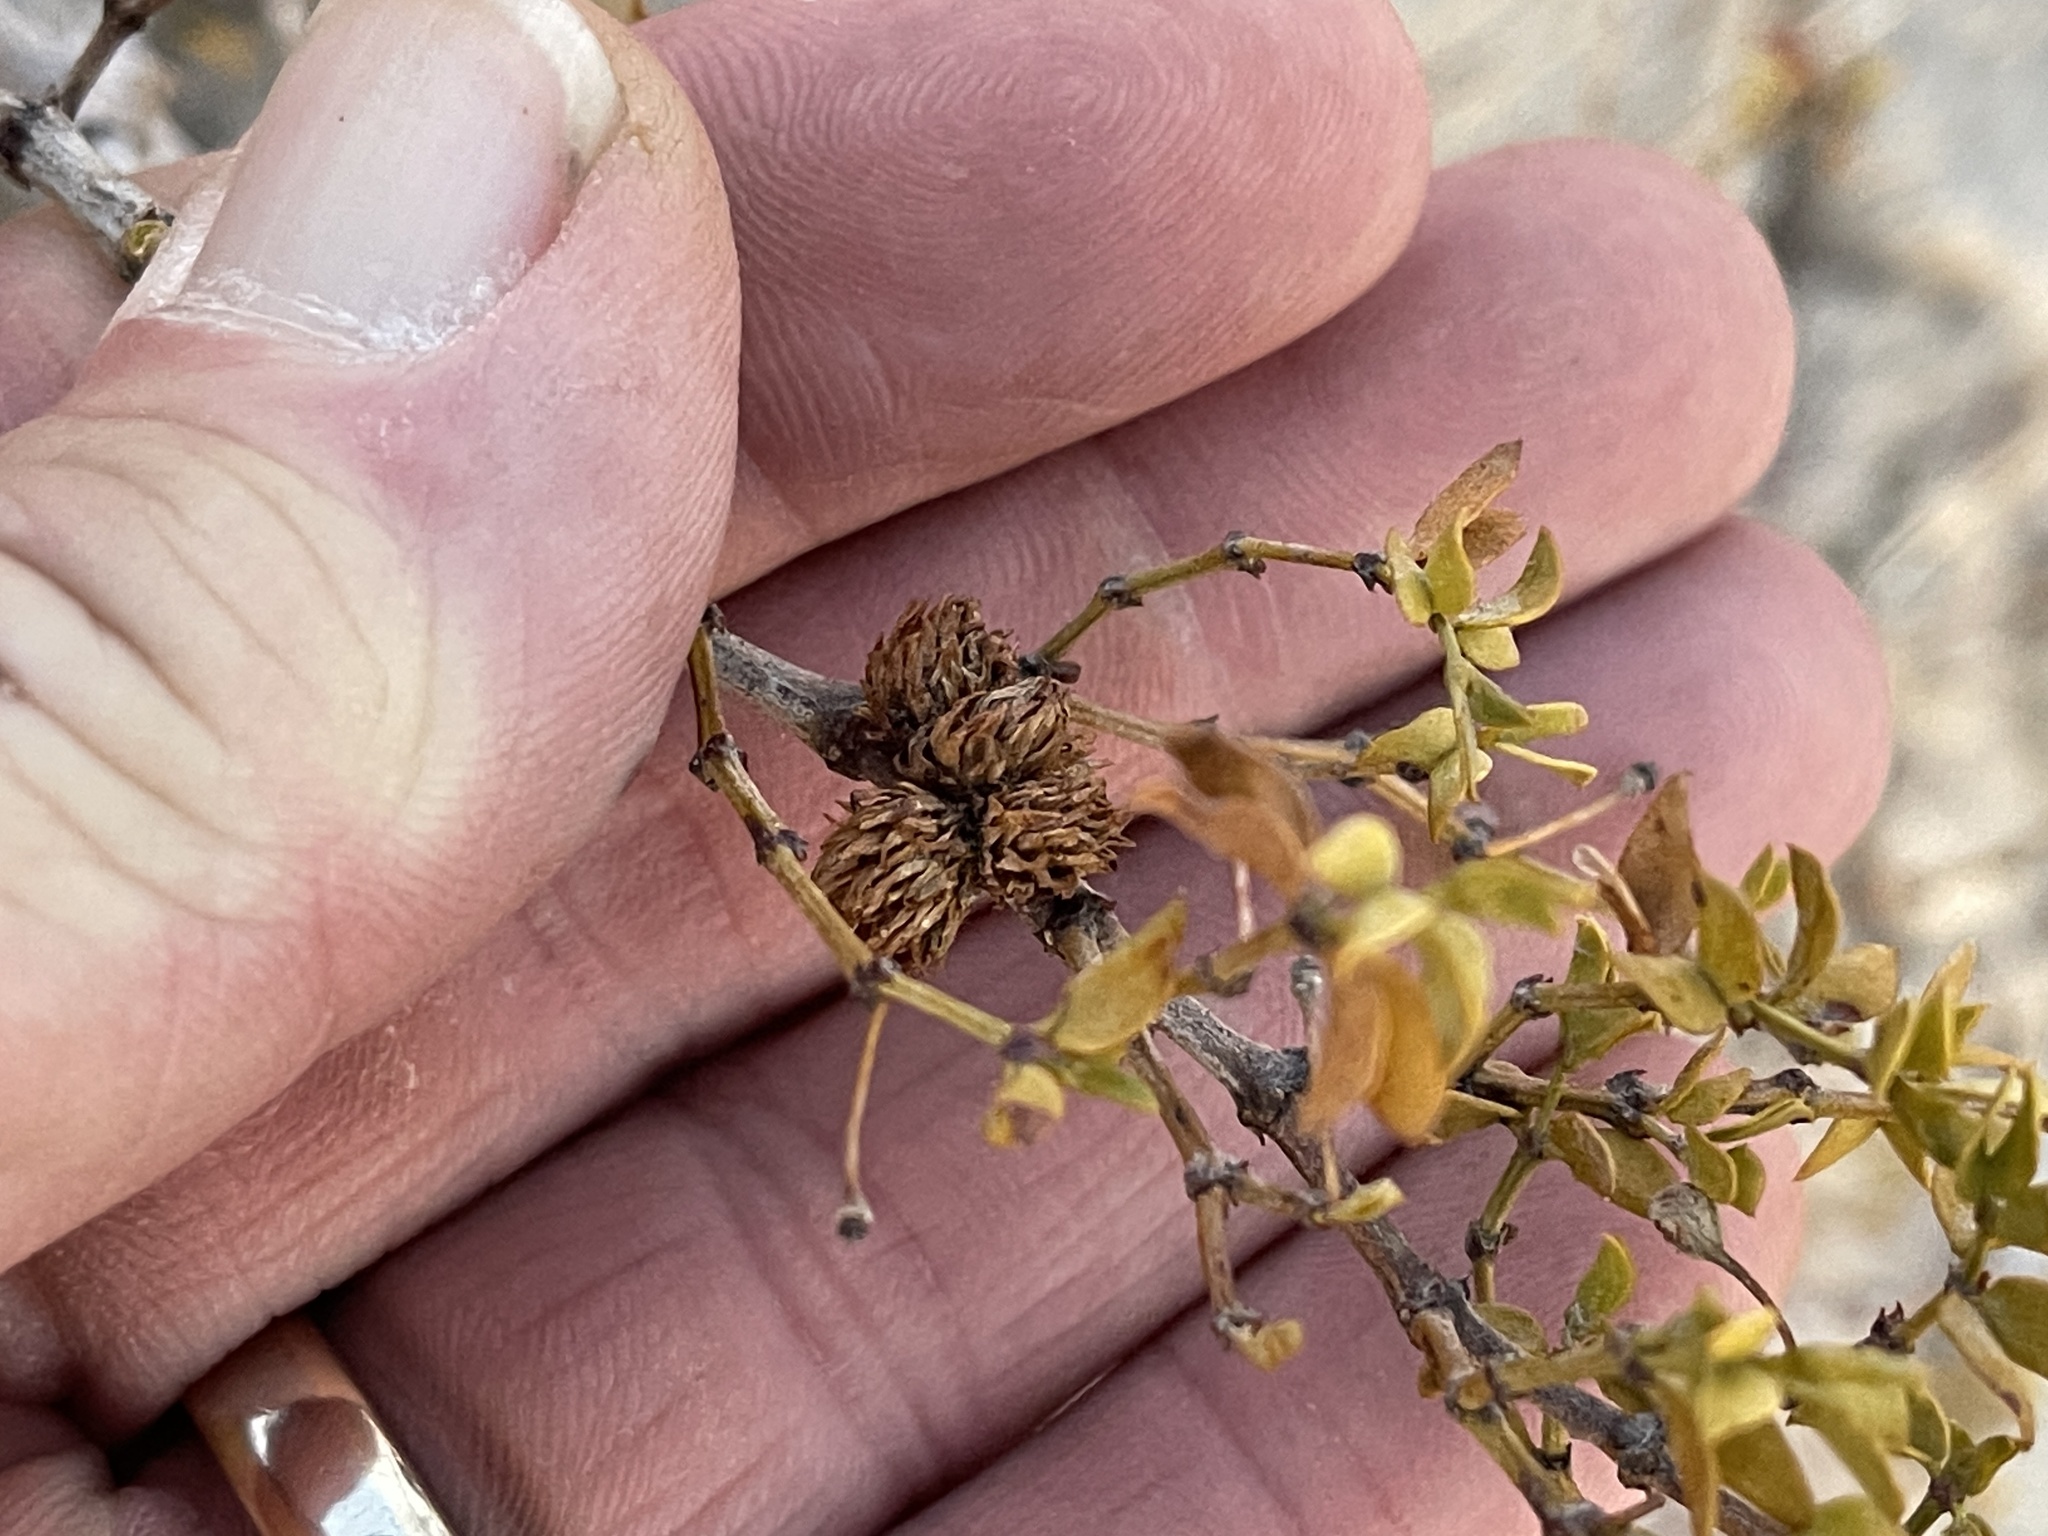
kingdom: Animalia
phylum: Arthropoda
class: Insecta
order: Diptera
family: Cecidomyiidae
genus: Asphondylia
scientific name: Asphondylia rosetta
